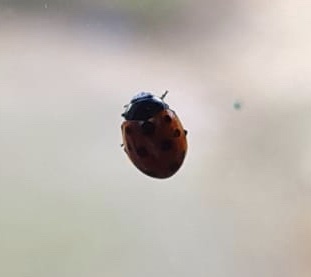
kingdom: Animalia
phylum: Arthropoda
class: Insecta
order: Coleoptera
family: Coccinellidae
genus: Coccinella
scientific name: Coccinella undecimpunctata
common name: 11-spot ladybird
